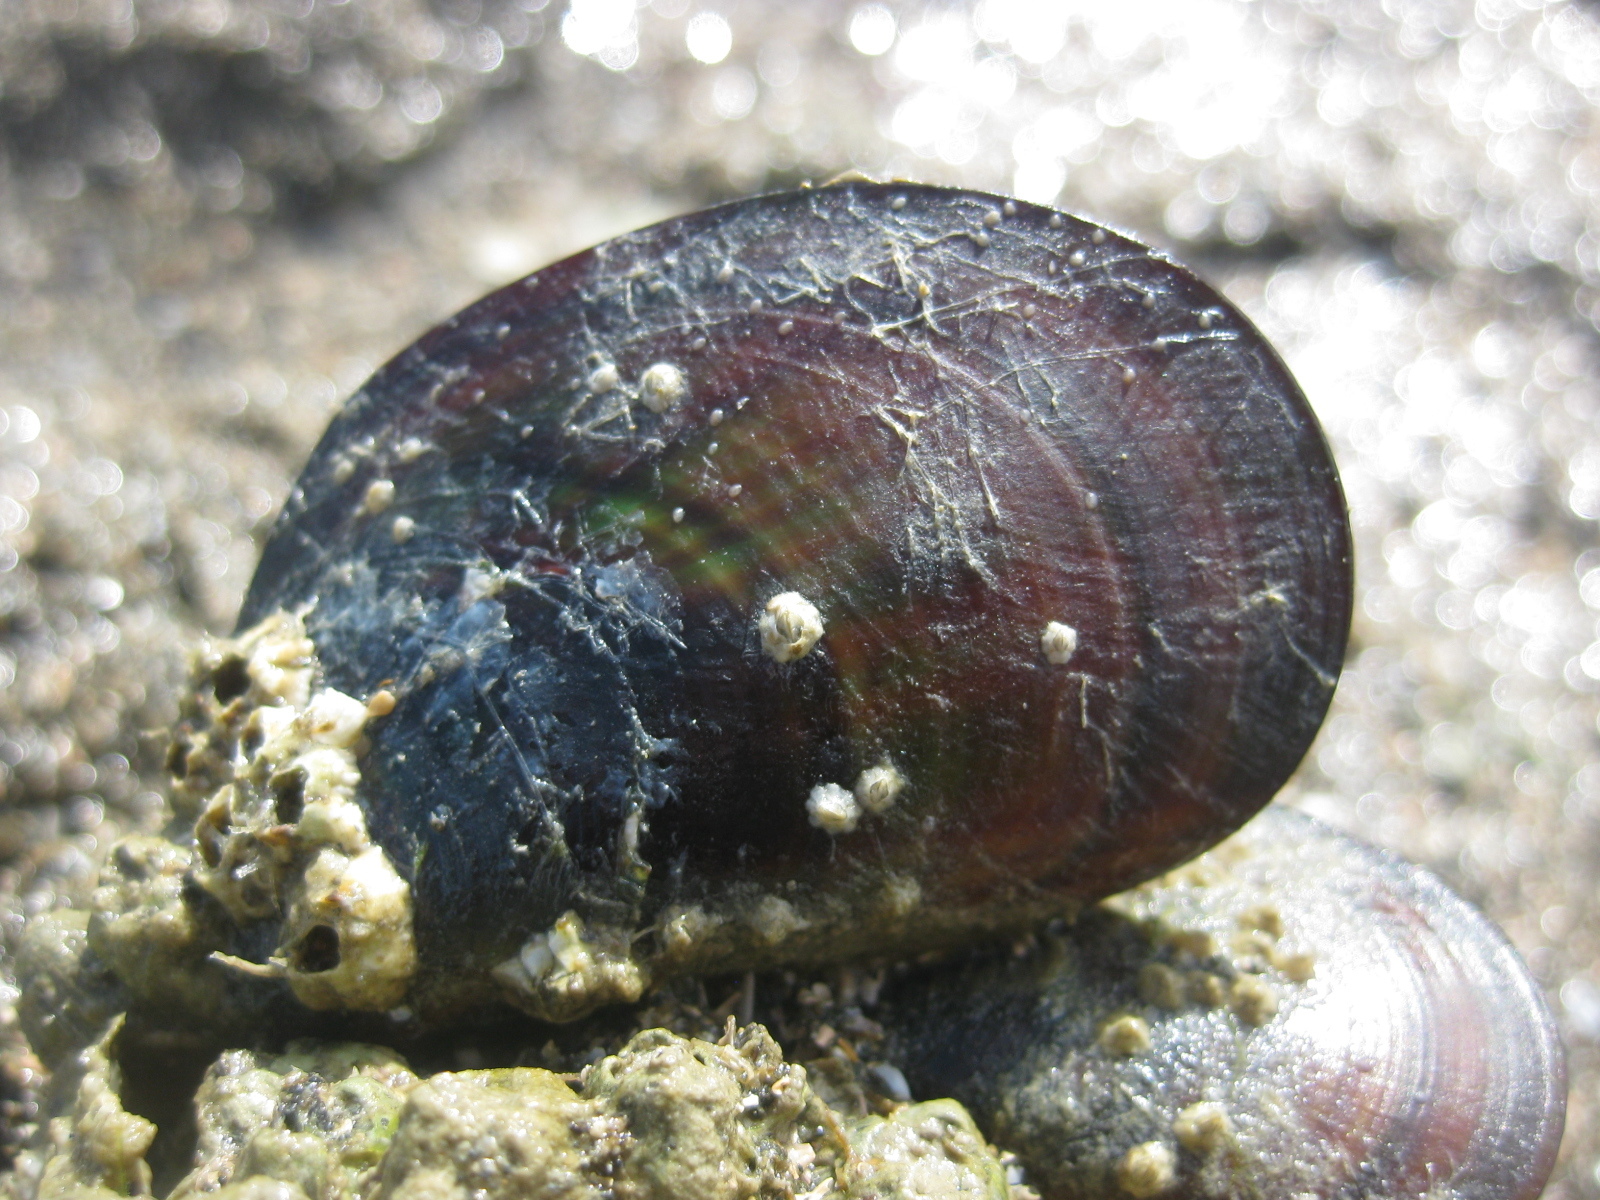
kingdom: Animalia
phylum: Mollusca
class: Bivalvia
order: Mytilida
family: Mytilidae
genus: Perna
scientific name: Perna canaliculus
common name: New zealand greenshelltm
